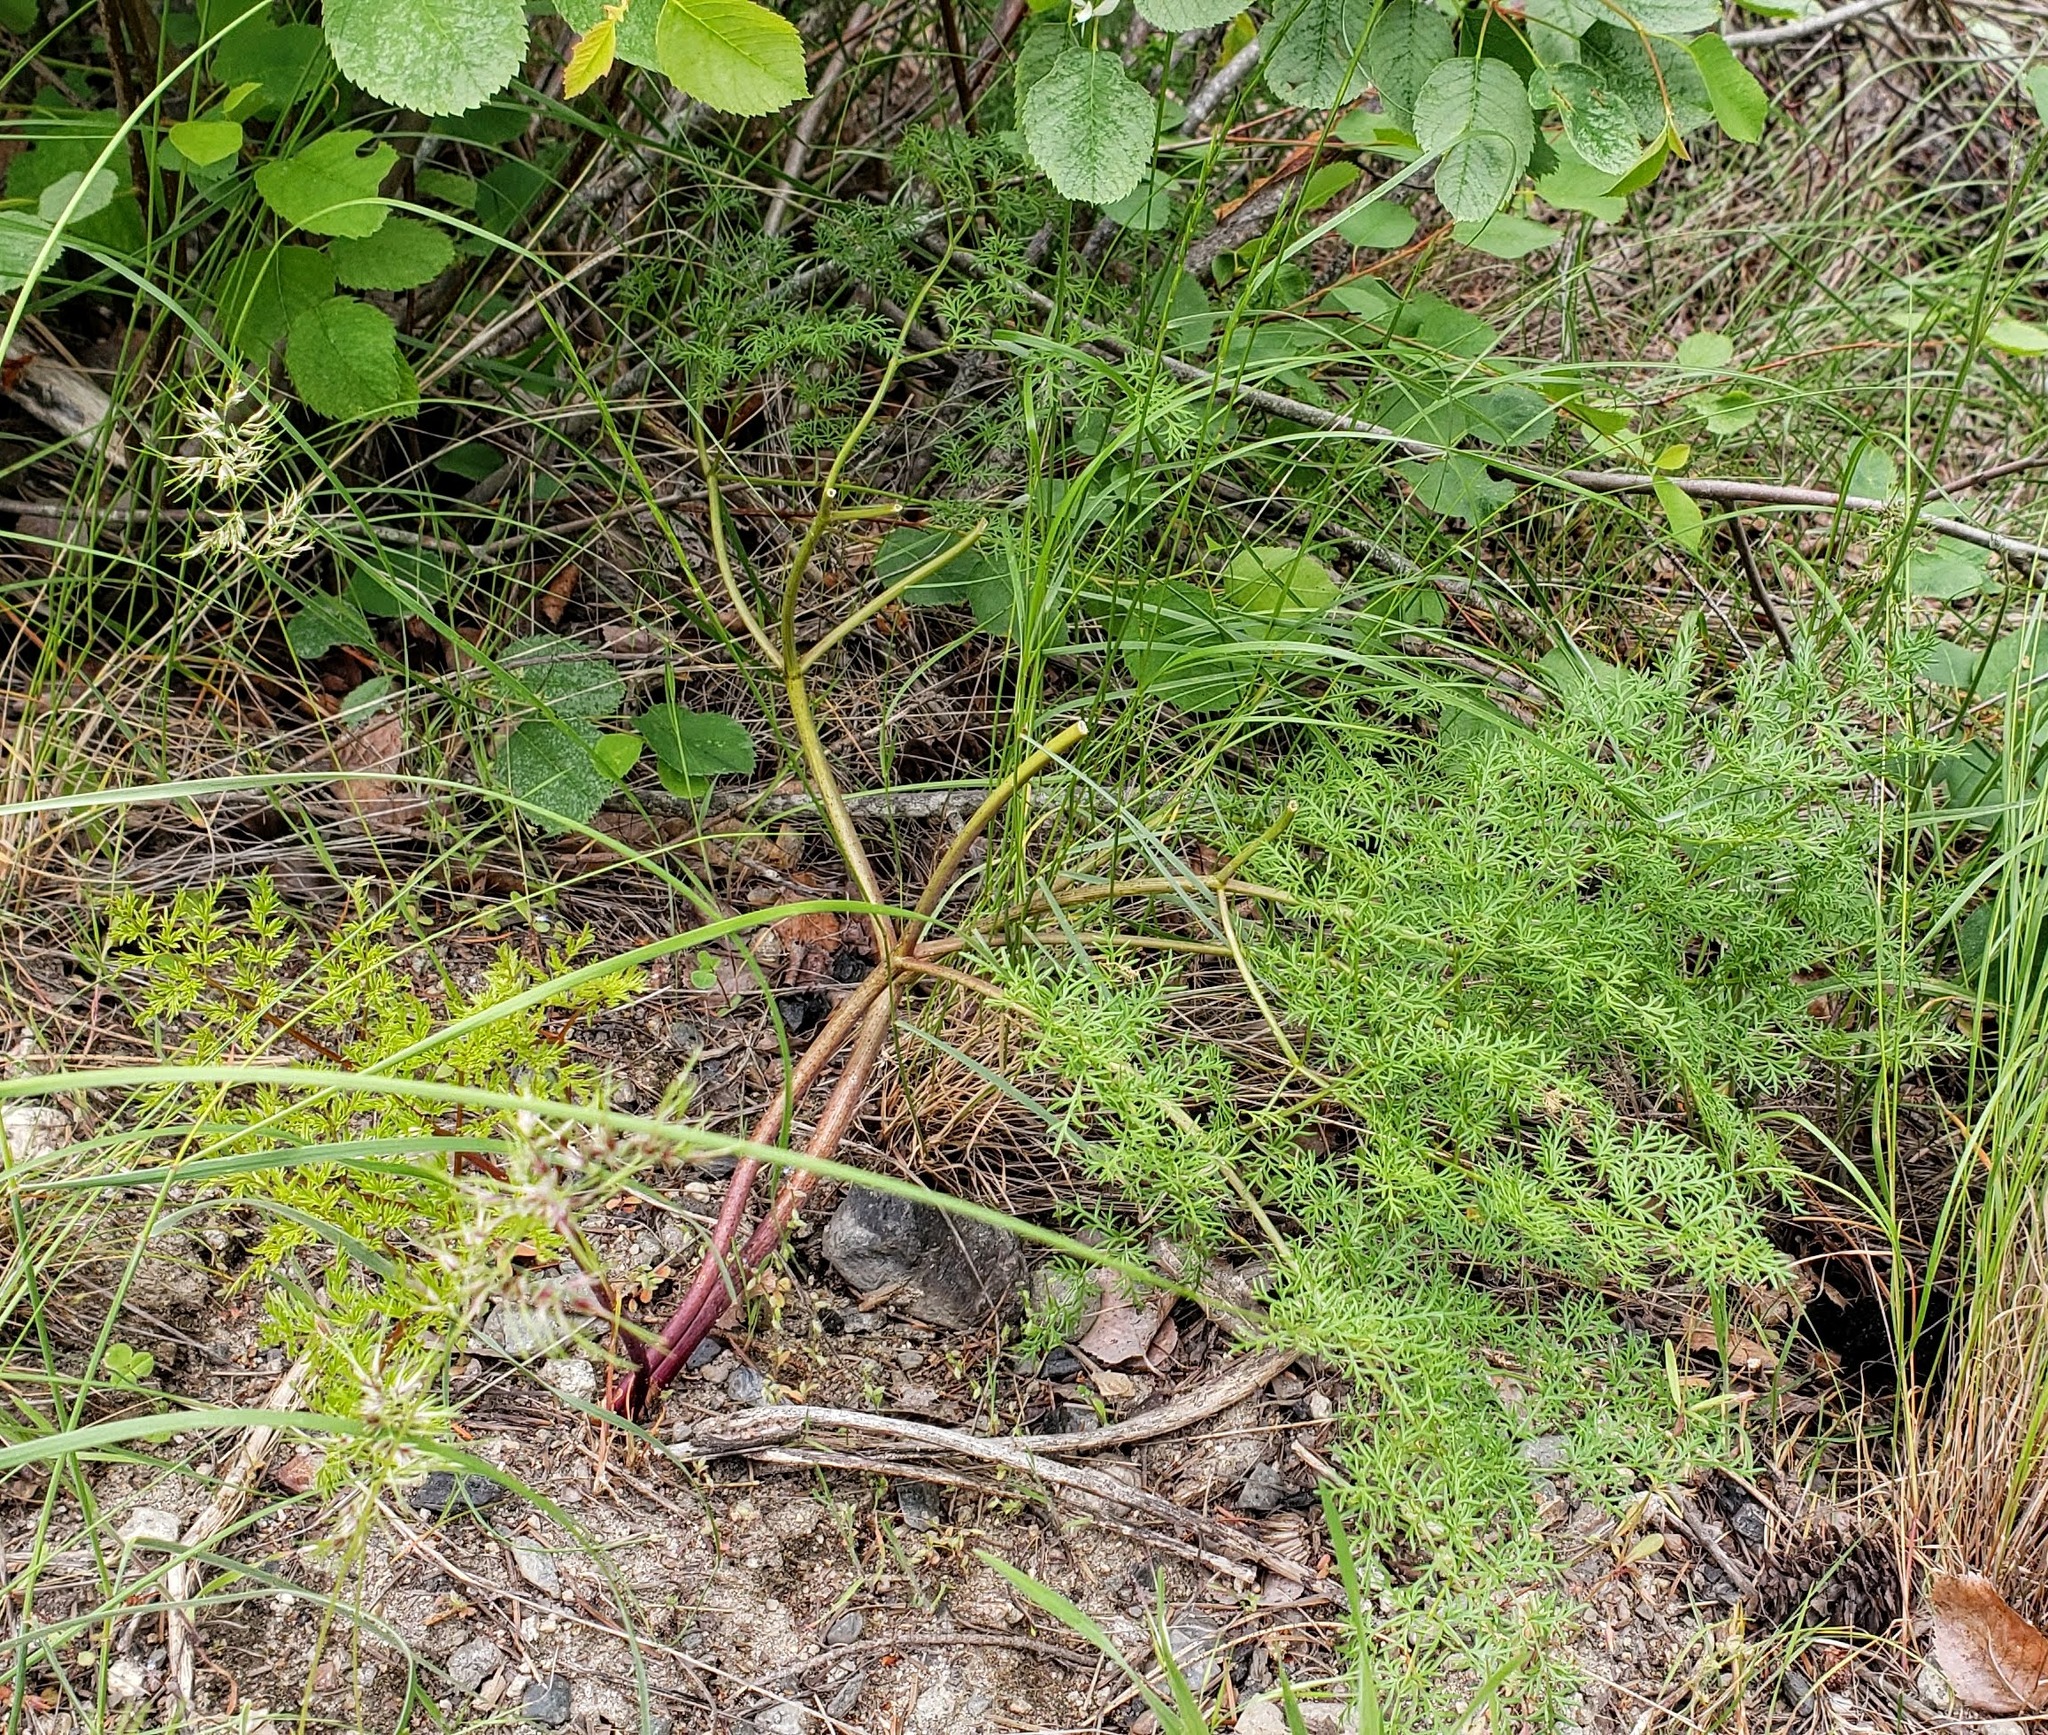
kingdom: Plantae
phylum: Tracheophyta
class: Magnoliopsida
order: Apiales
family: Apiaceae
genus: Lomatium
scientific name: Lomatium multifidum
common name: Carrot-leaved biscuitroot
